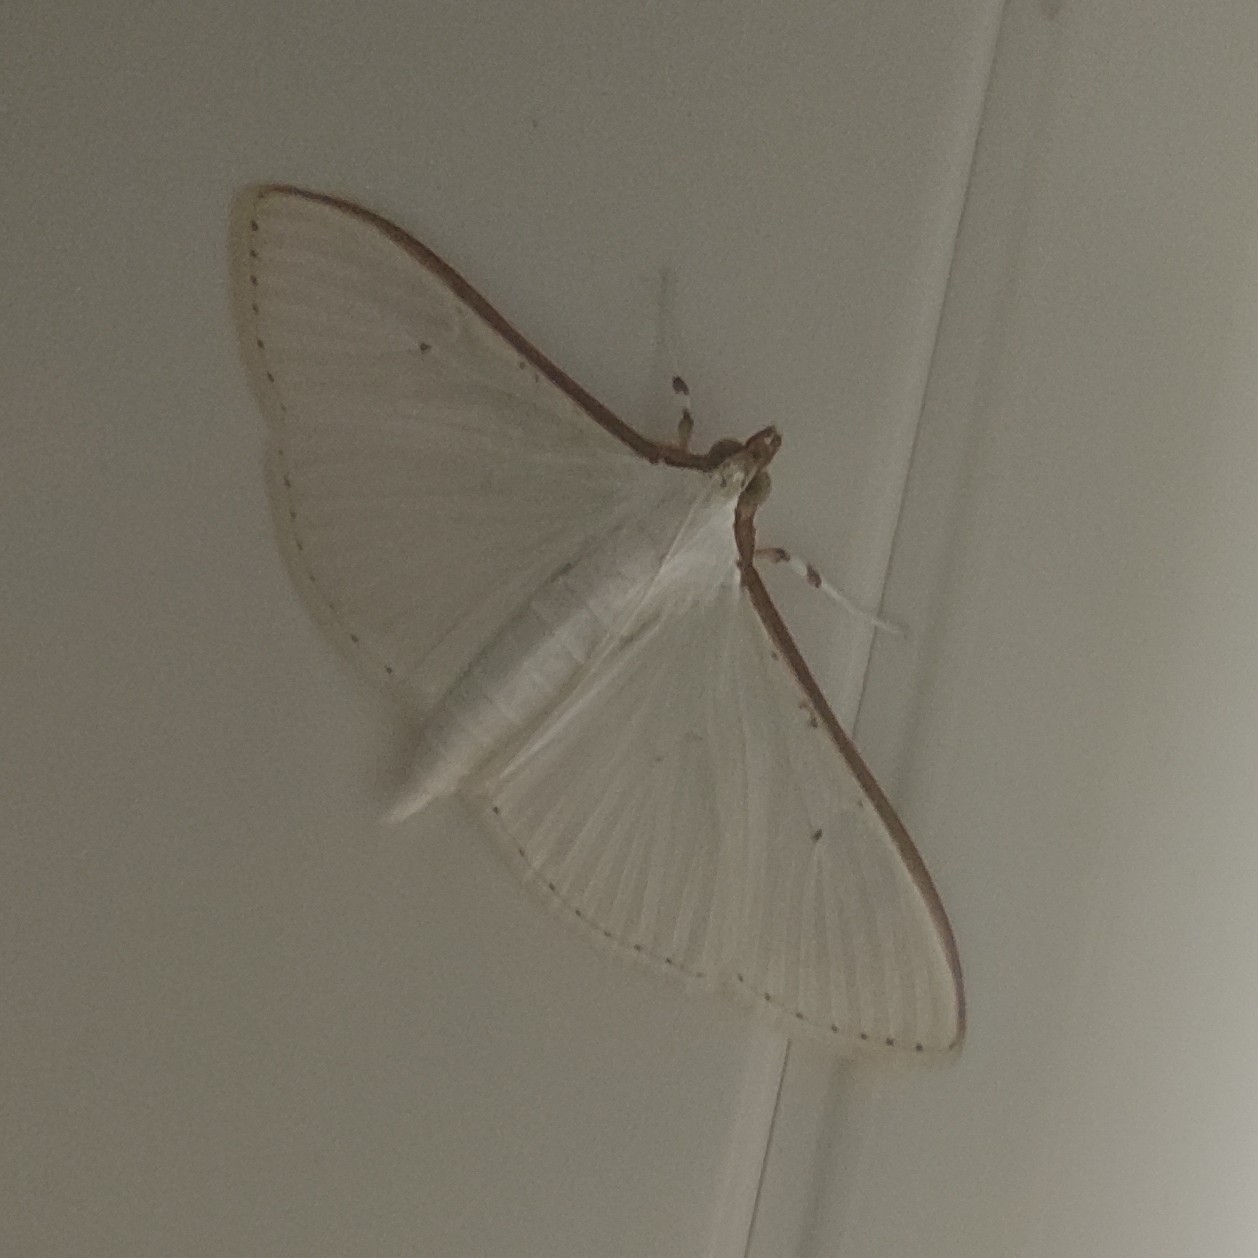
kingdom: Animalia
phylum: Arthropoda
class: Insecta
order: Lepidoptera
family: Crambidae
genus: Palpita
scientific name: Palpita vitrealis
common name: Olive-tree pearl
